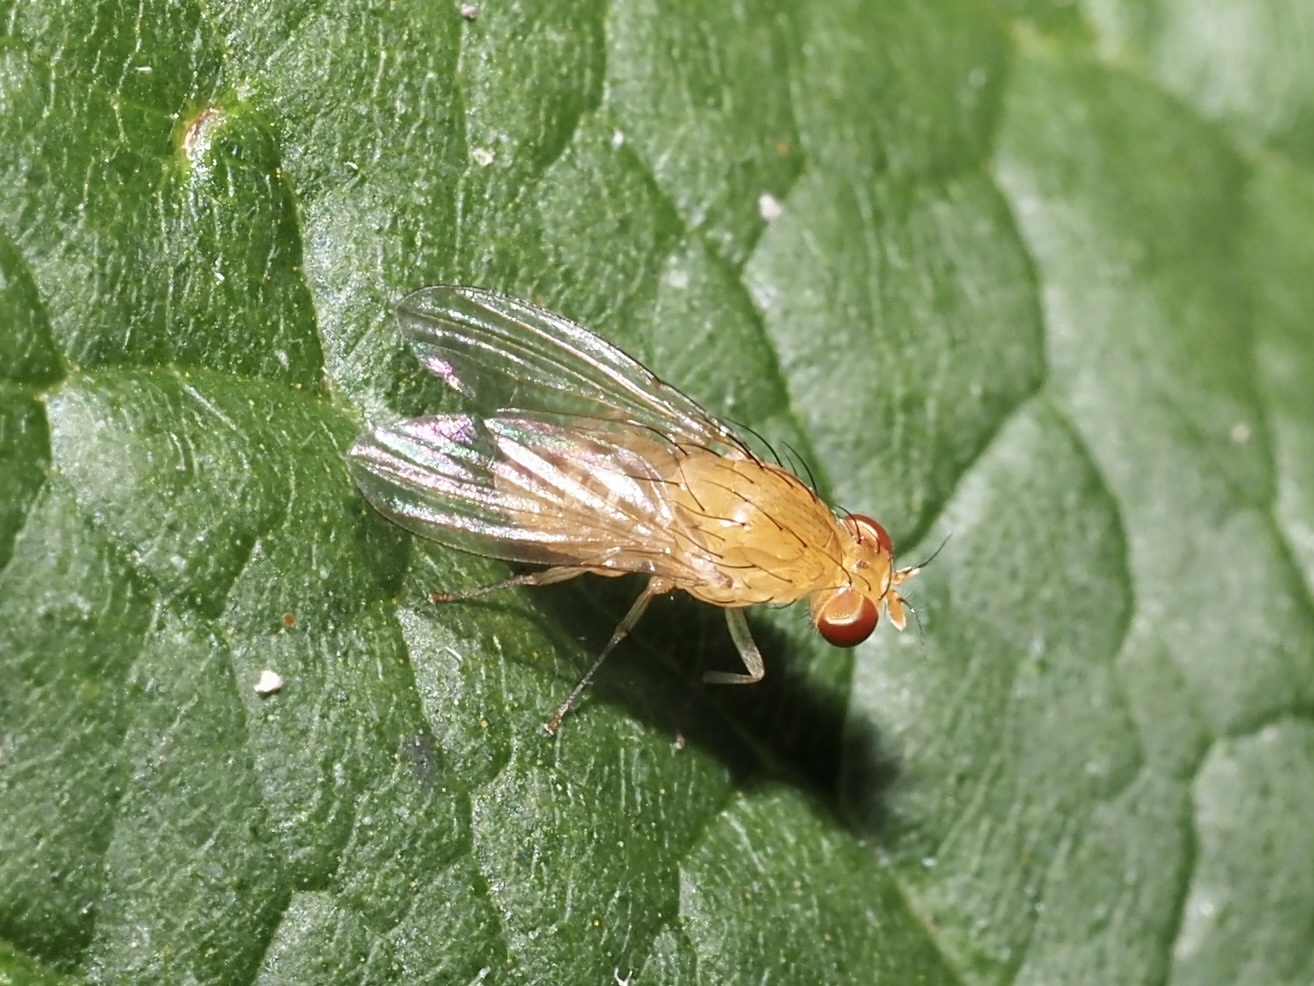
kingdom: Animalia
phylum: Arthropoda
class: Insecta
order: Diptera
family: Lauxaniidae
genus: Neogriphoneura
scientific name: Neogriphoneura sordida
